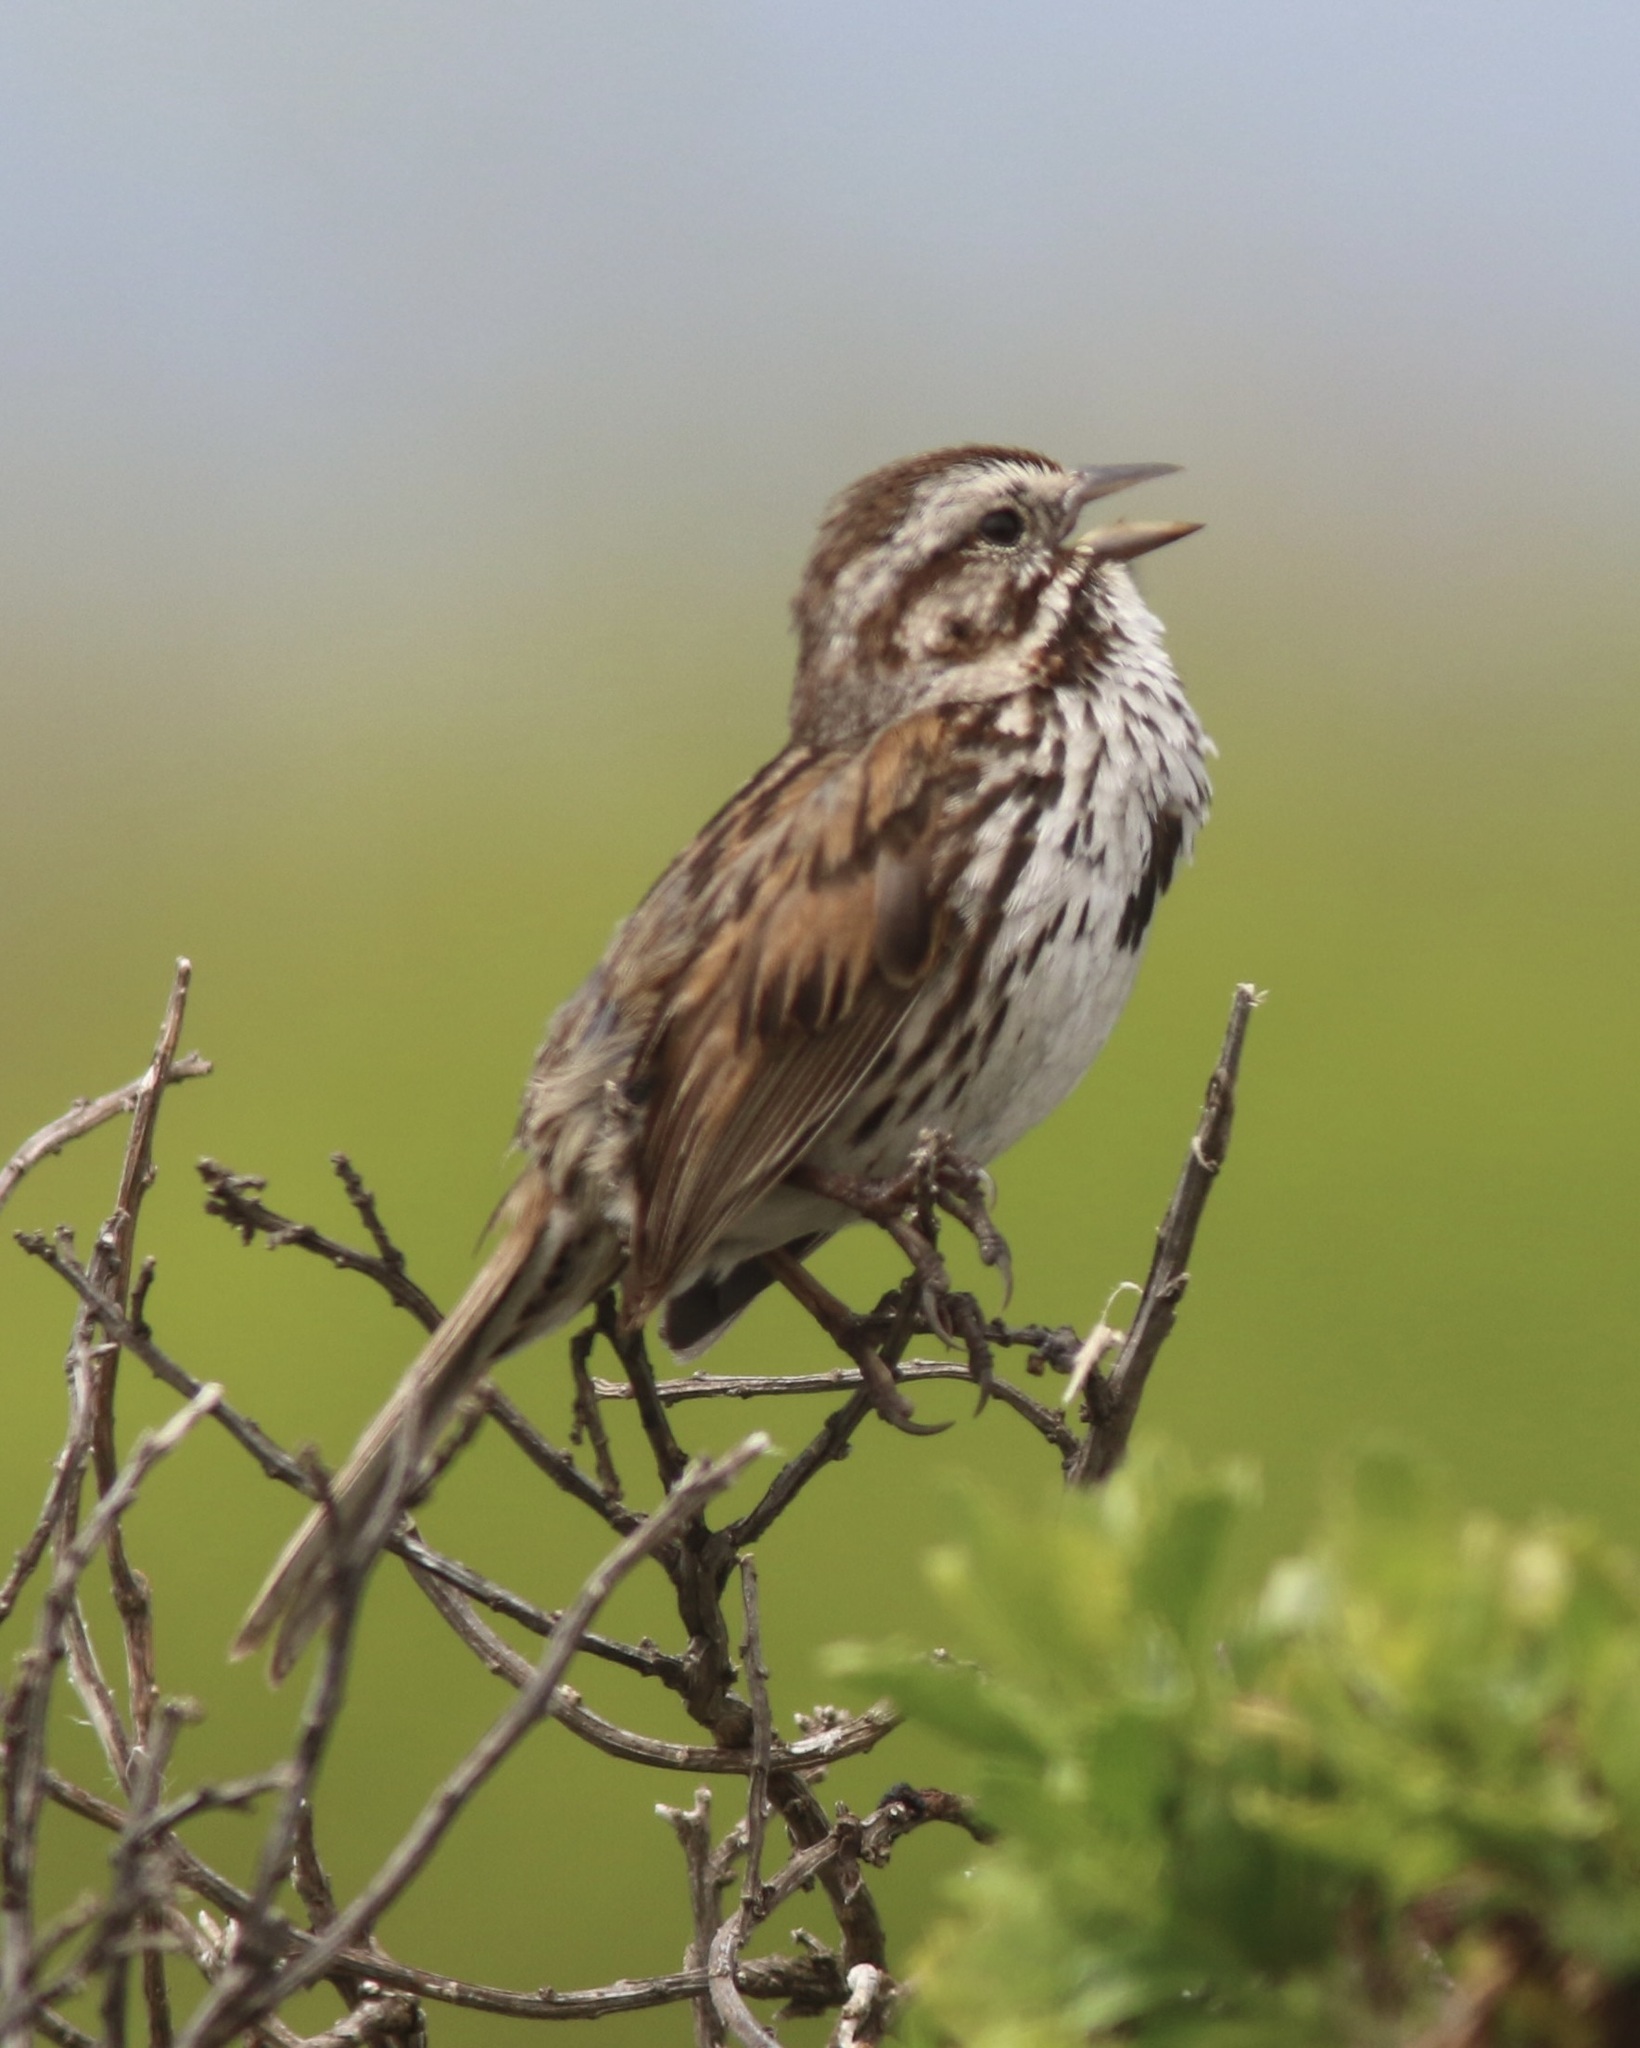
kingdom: Animalia
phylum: Chordata
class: Aves
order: Passeriformes
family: Passerellidae
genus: Melospiza
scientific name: Melospiza melodia
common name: Song sparrow
